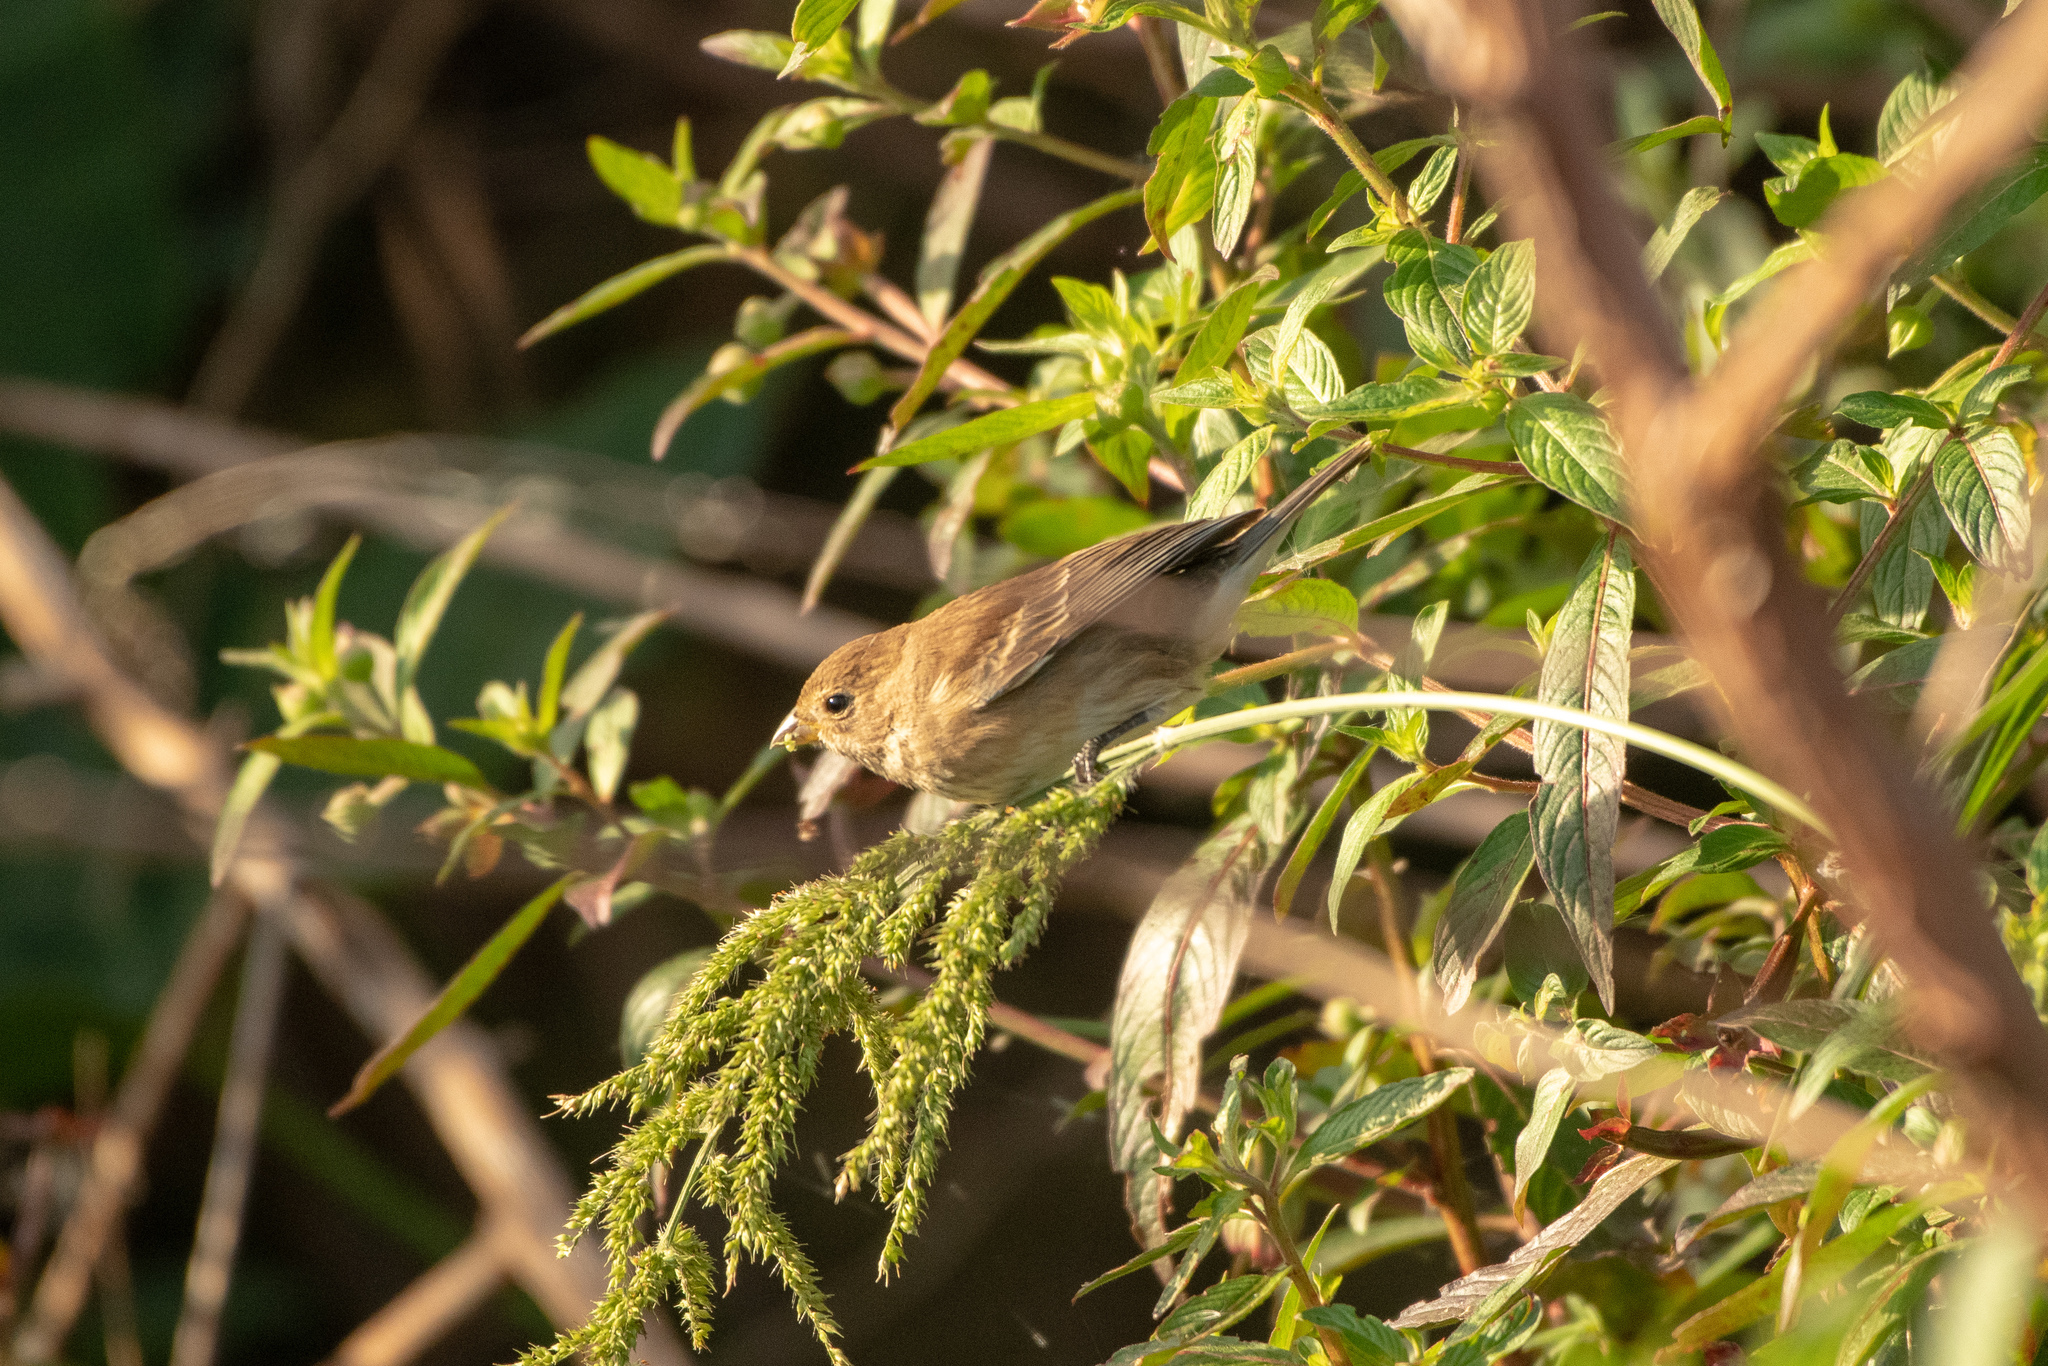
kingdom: Animalia
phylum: Chordata
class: Aves
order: Passeriformes
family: Cardinalidae
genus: Passerina
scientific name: Passerina cyanea
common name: Indigo bunting
